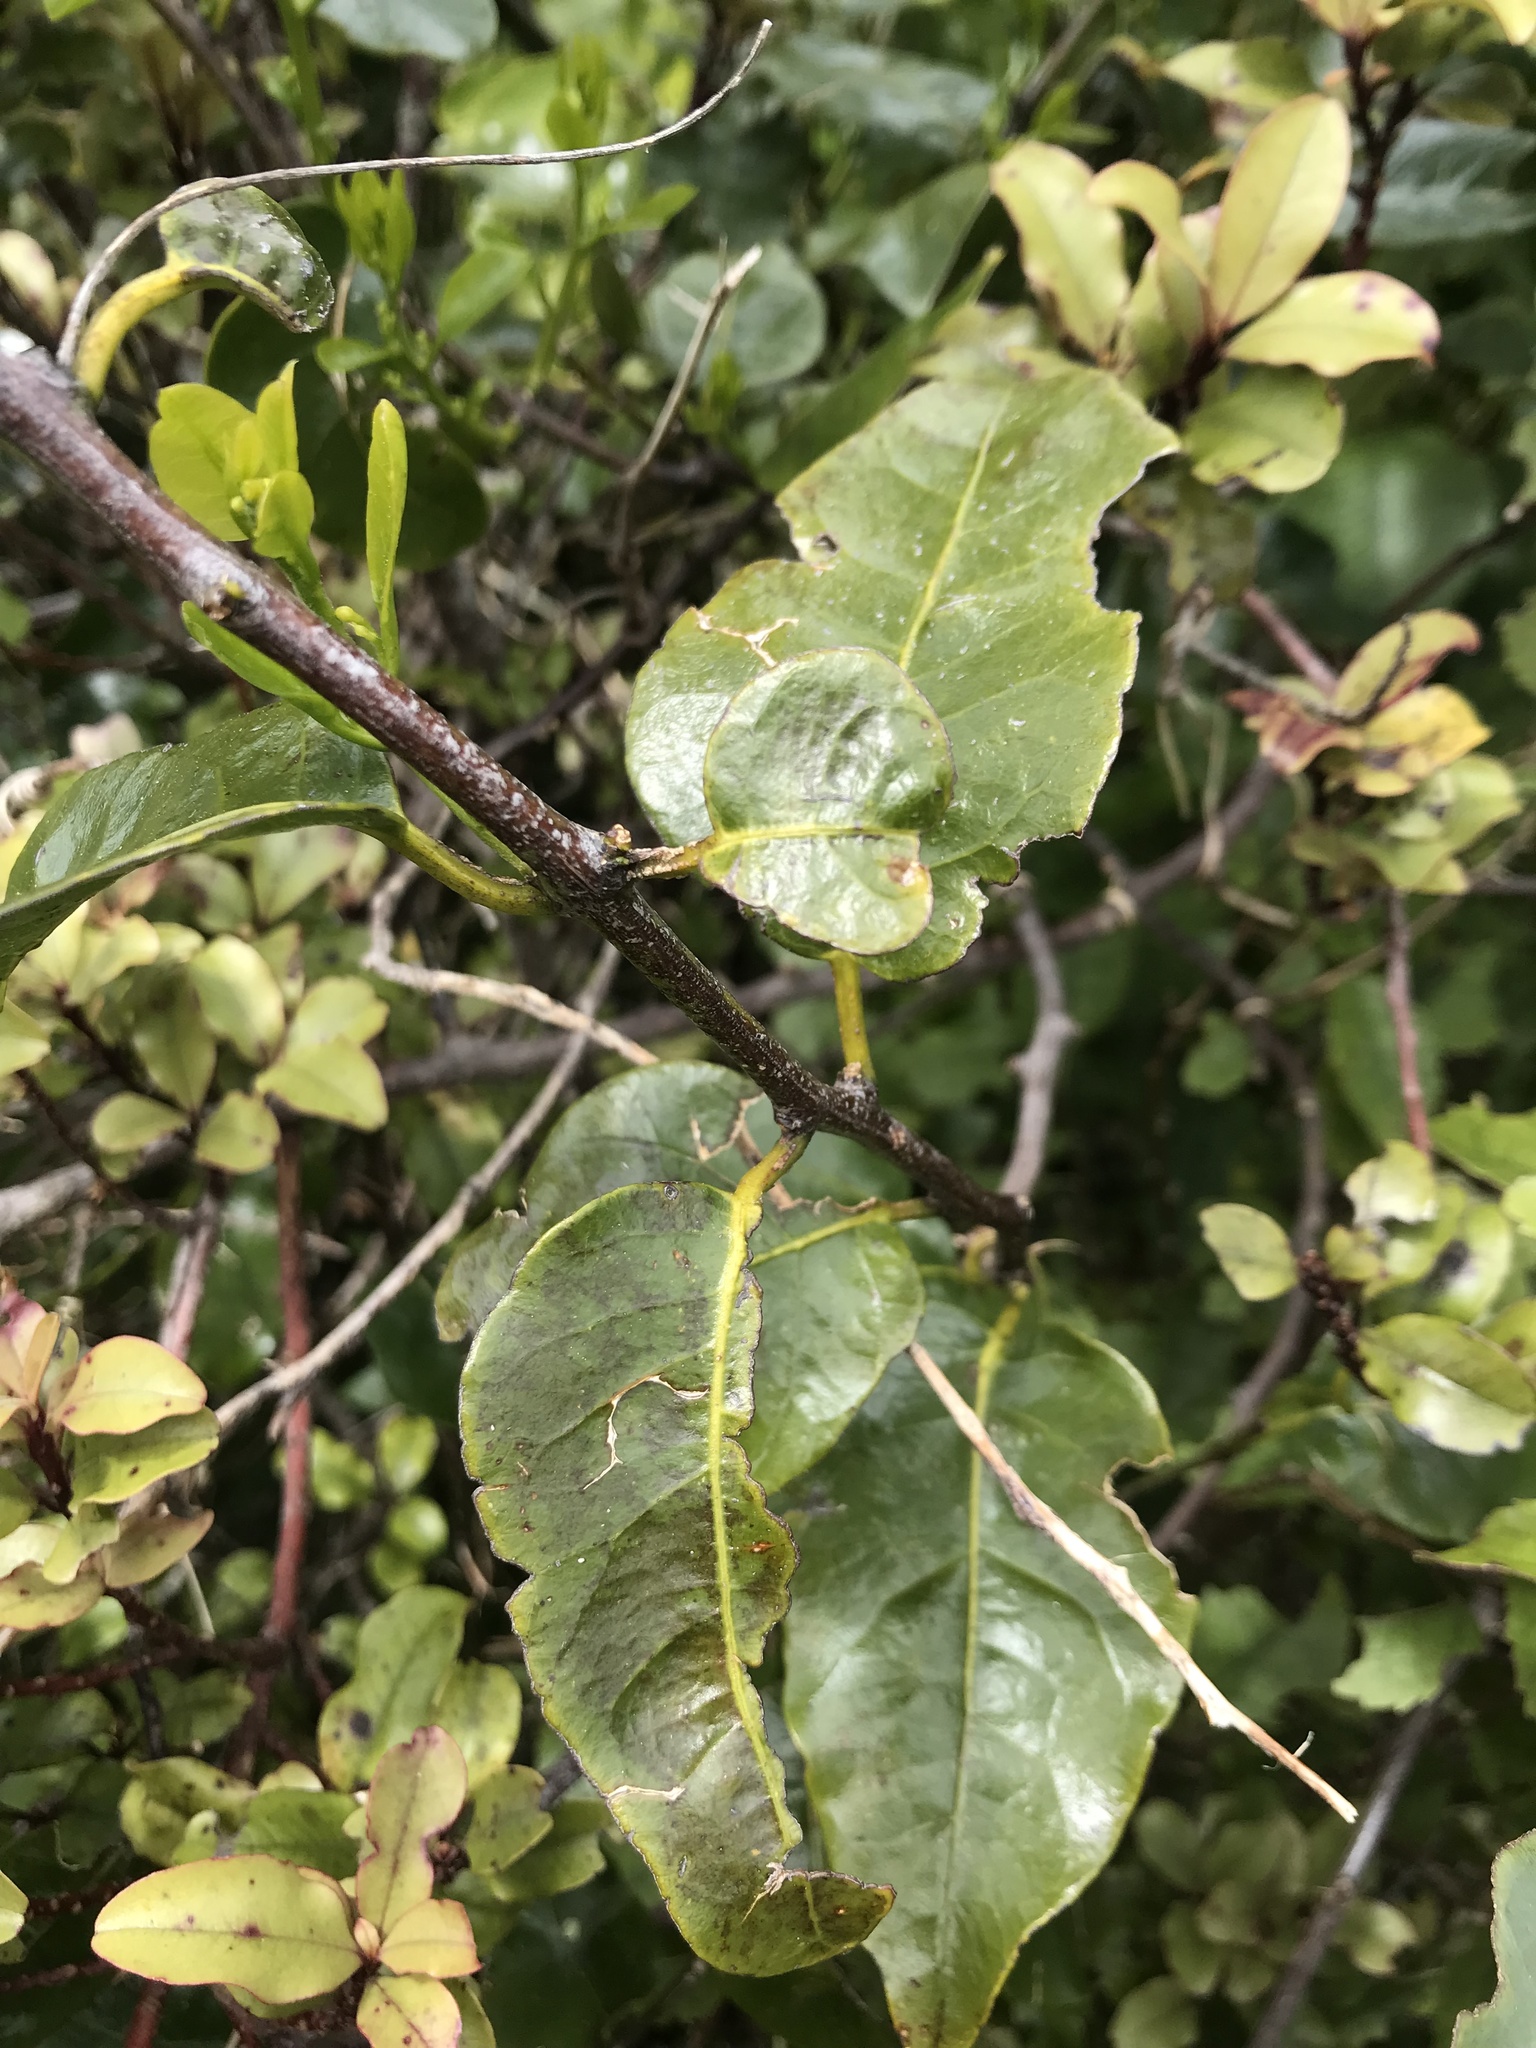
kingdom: Plantae
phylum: Tracheophyta
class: Magnoliopsida
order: Malpighiales
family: Passifloraceae
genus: Passiflora
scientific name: Passiflora tetrandra
